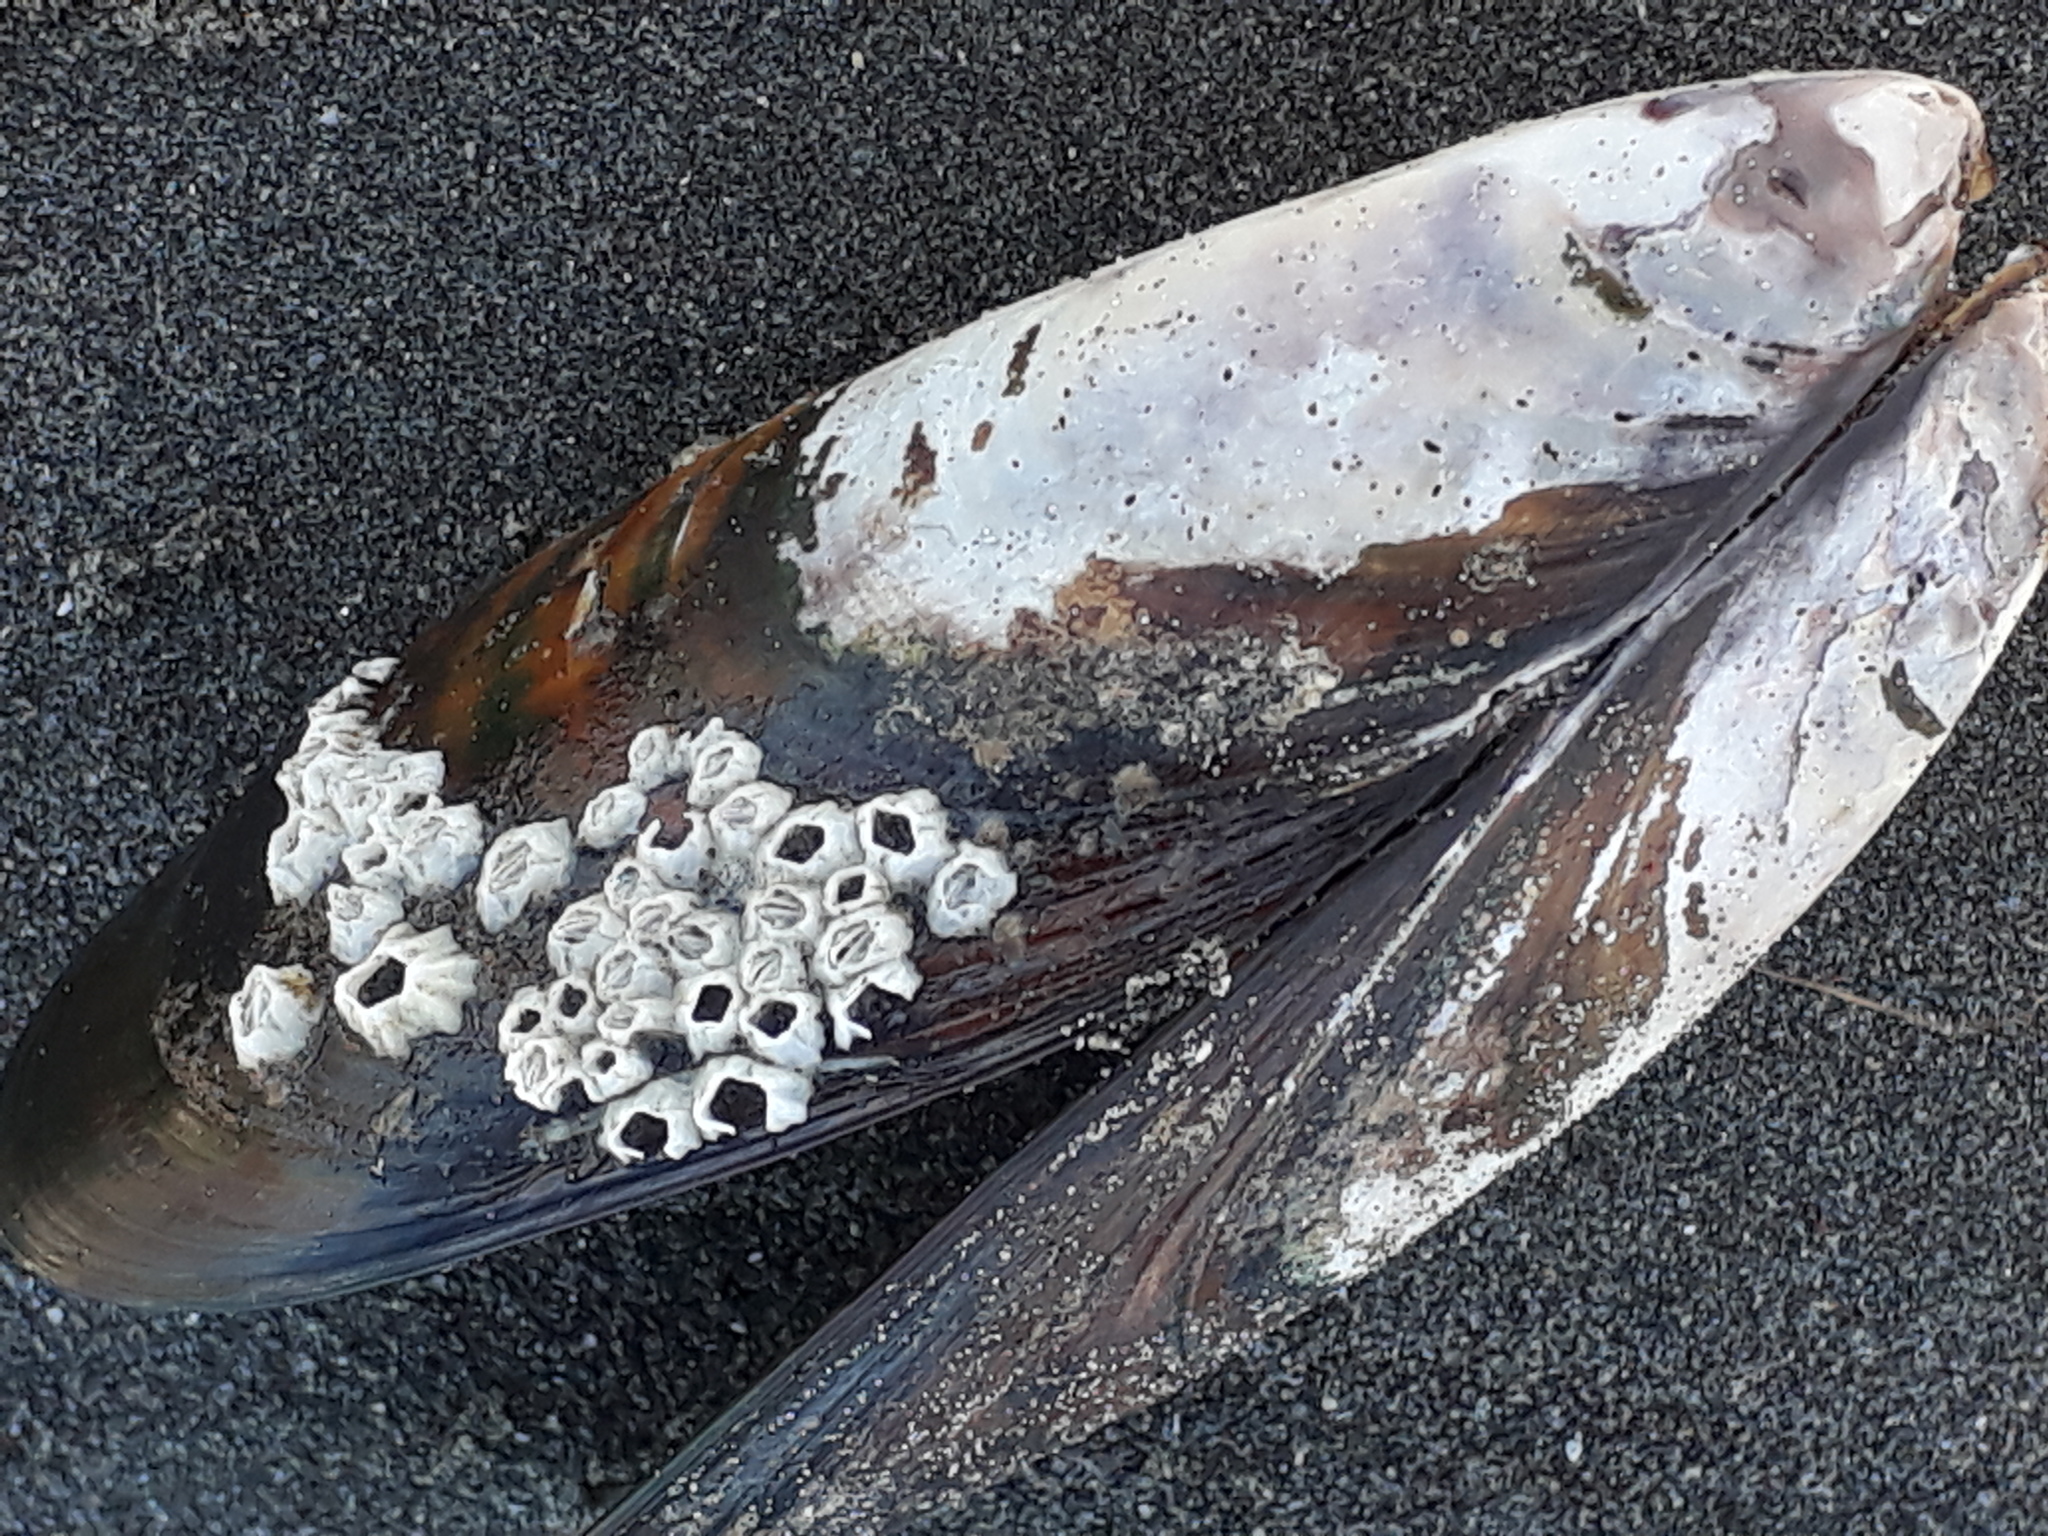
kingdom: Animalia
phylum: Arthropoda
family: Elminiidae
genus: Austrominius
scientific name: Austrominius modestus
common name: Australasian barnacle
